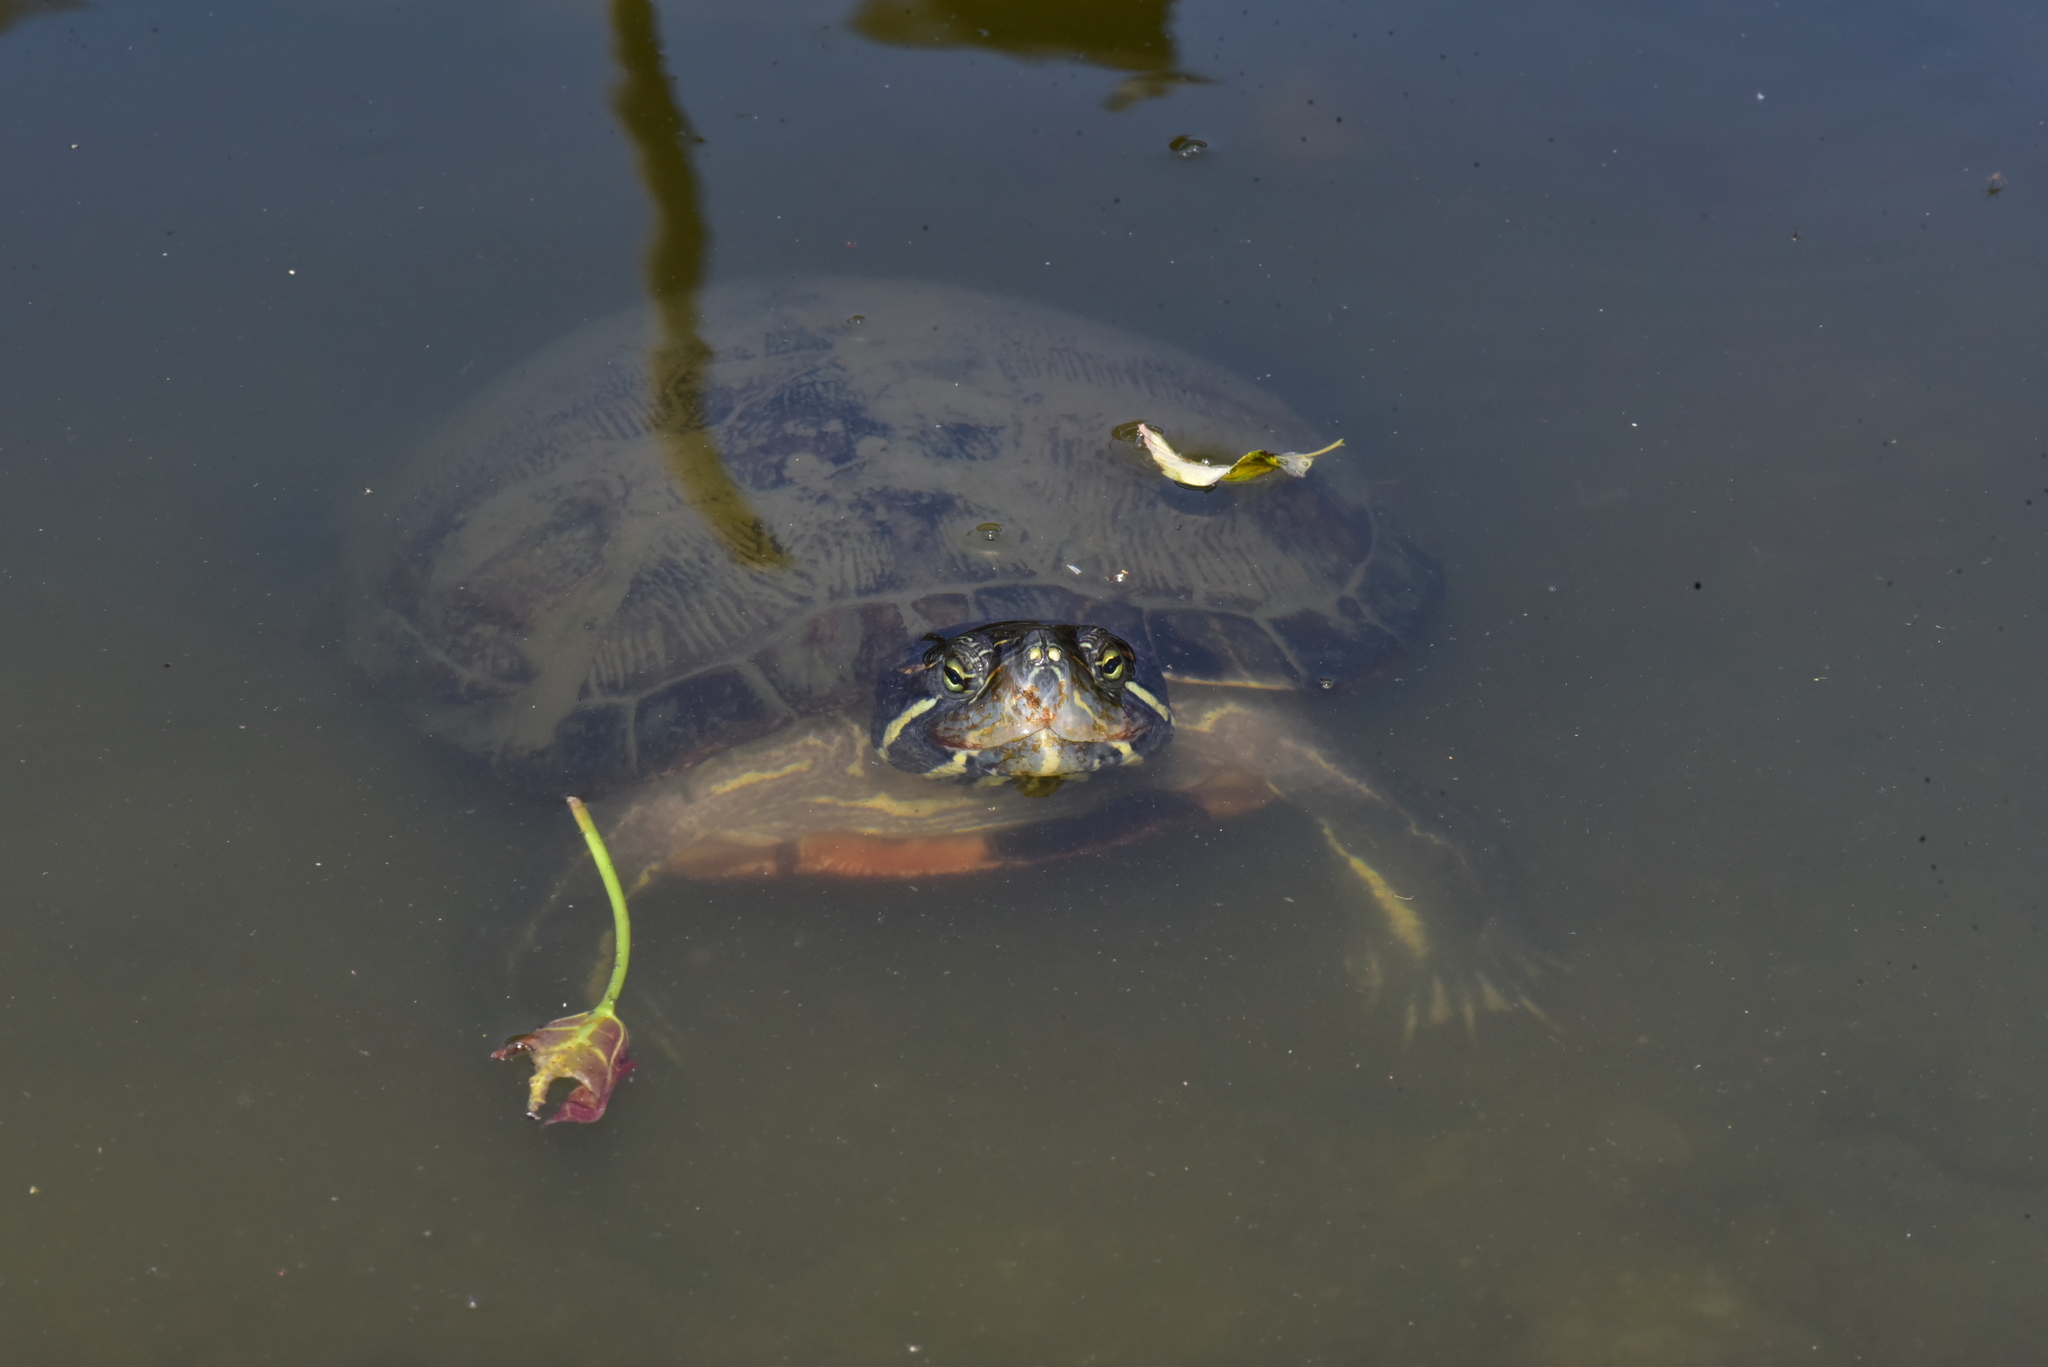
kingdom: Animalia
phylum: Chordata
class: Testudines
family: Emydidae
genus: Trachemys
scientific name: Trachemys scripta
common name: Slider
